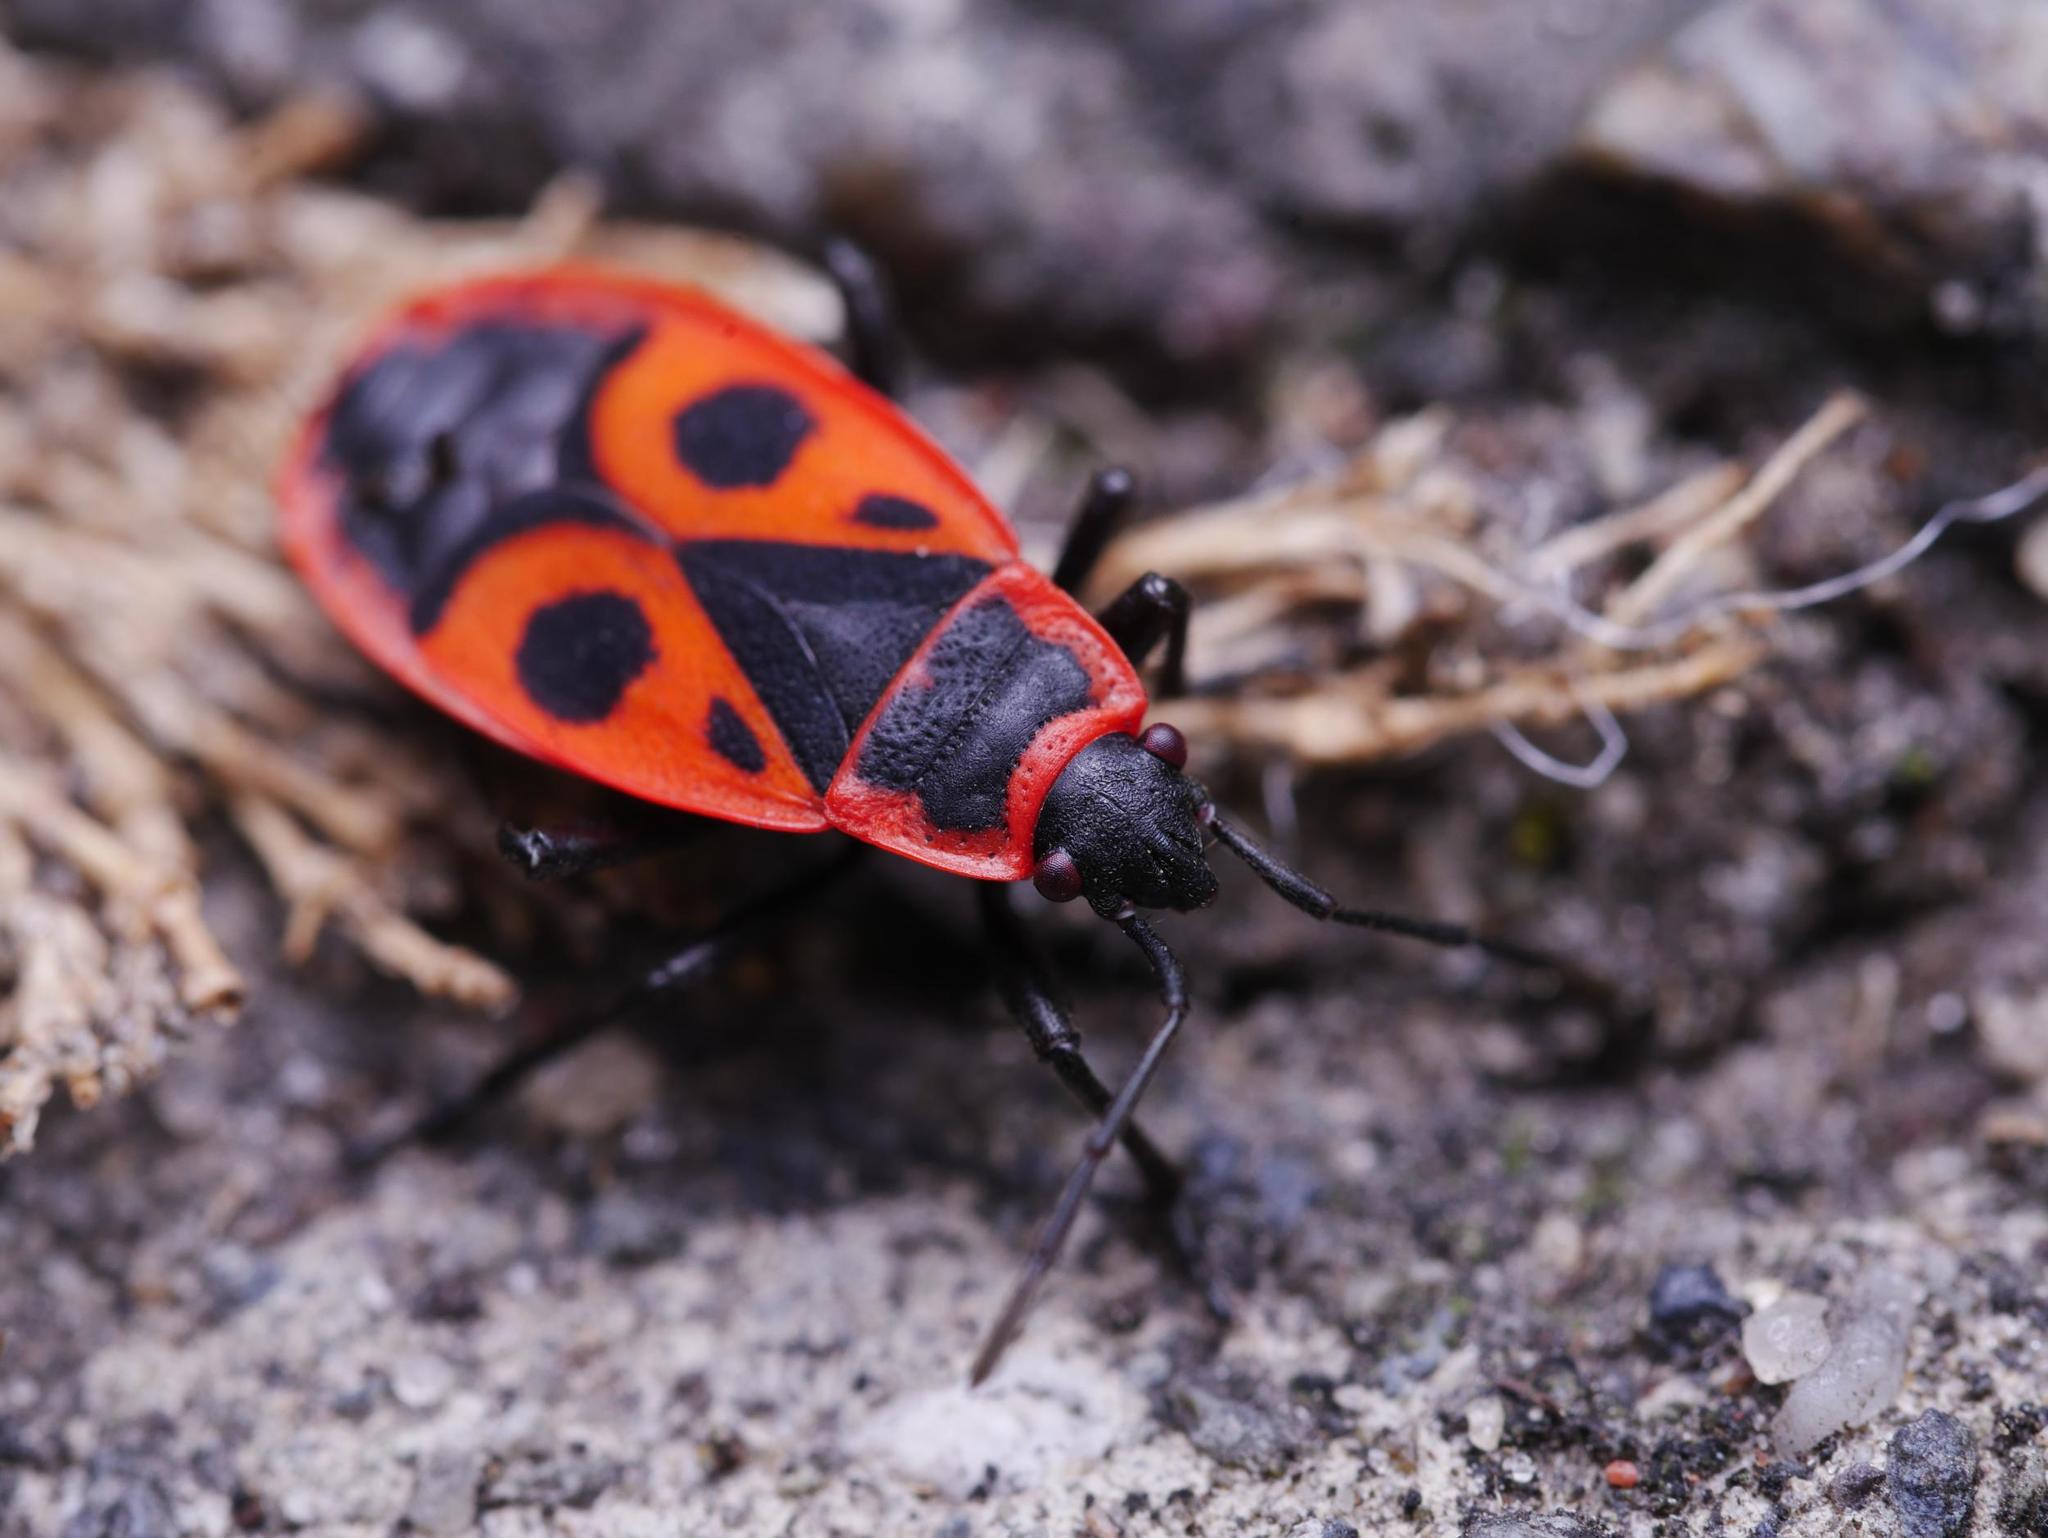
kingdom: Animalia
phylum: Arthropoda
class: Insecta
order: Hemiptera
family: Pyrrhocoridae
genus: Pyrrhocoris
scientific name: Pyrrhocoris apterus
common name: Firebug
